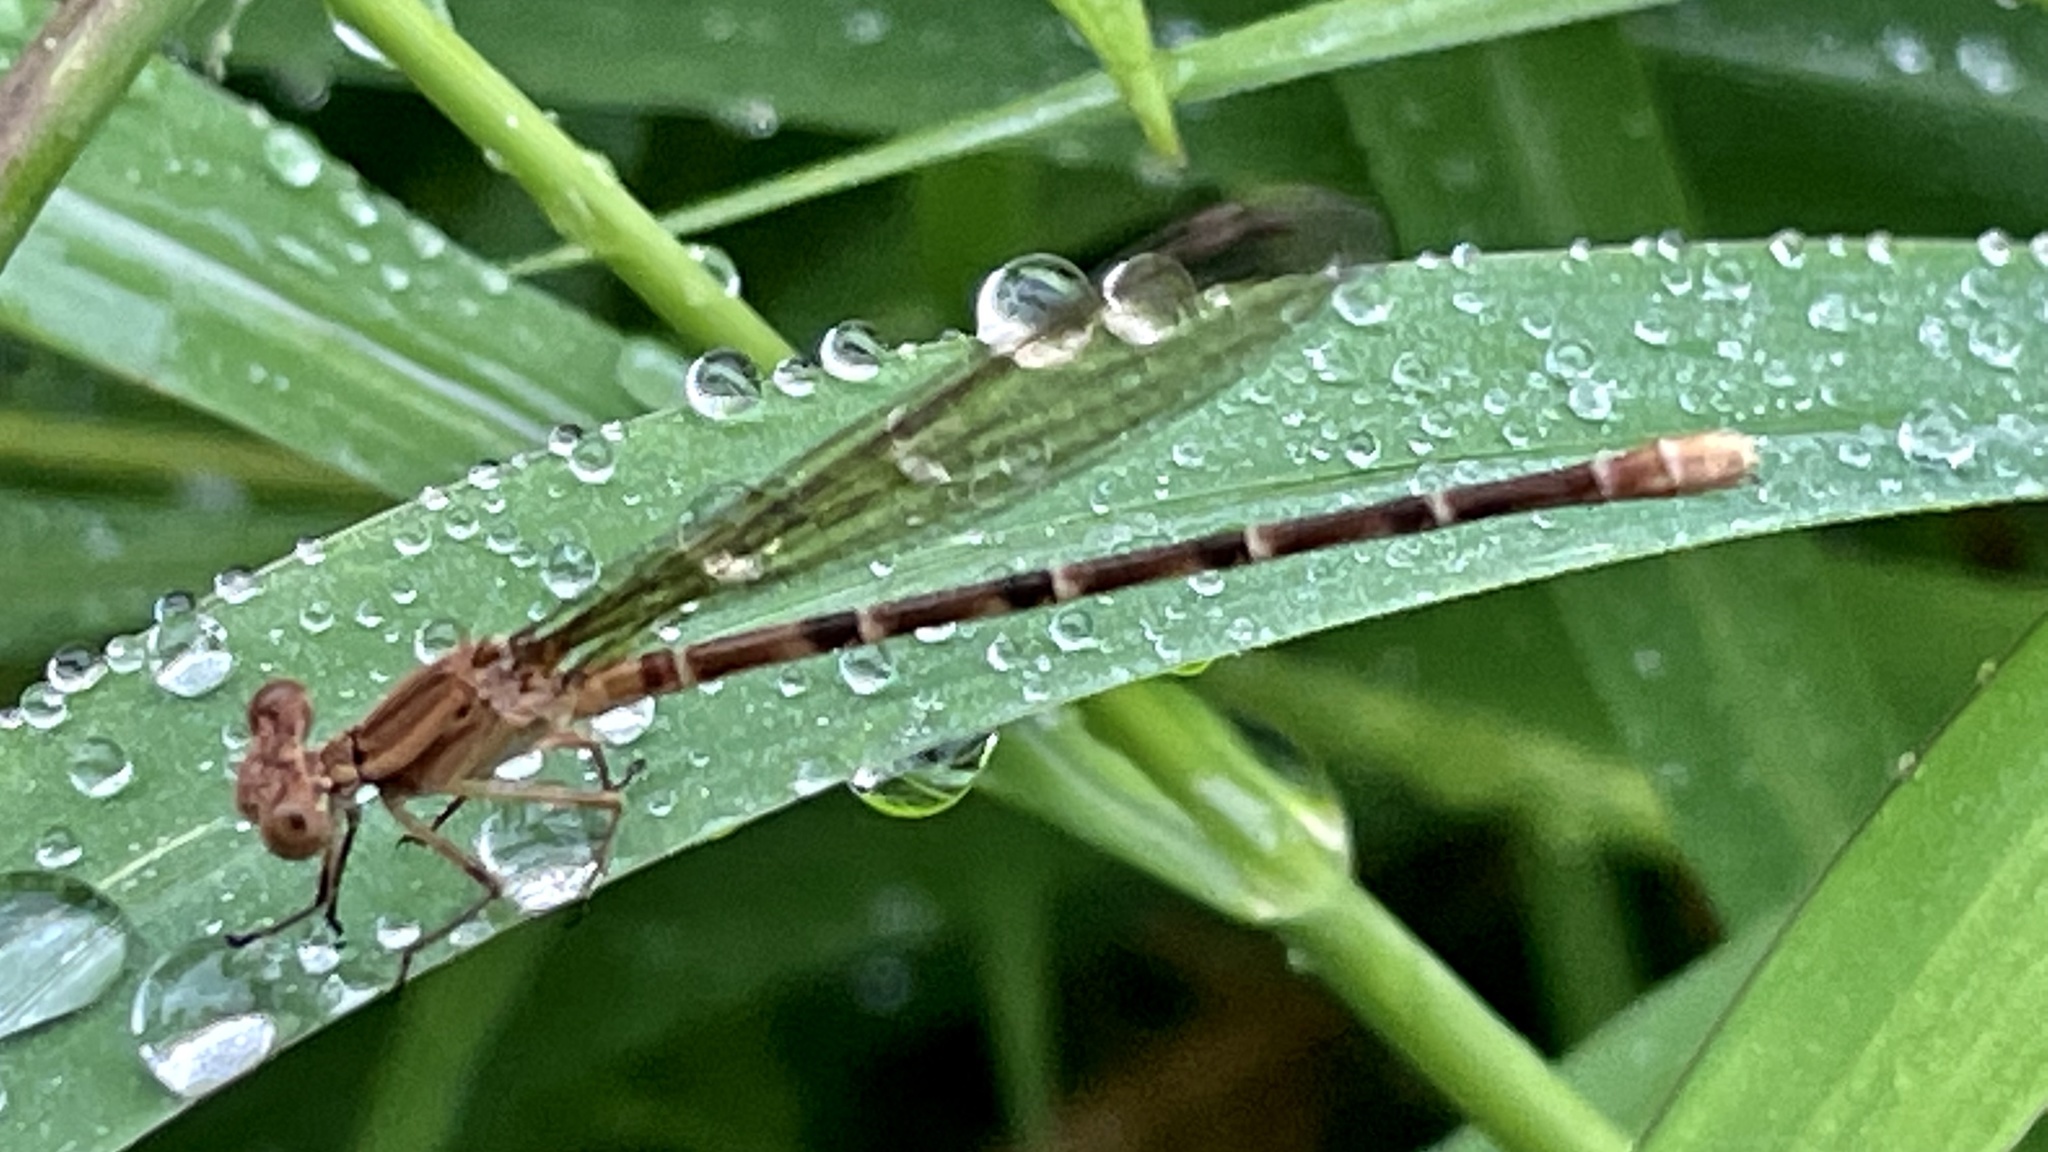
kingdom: Animalia
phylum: Arthropoda
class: Insecta
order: Odonata
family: Coenagrionidae
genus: Argia
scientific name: Argia sedula
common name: Blue-ringed dancer
